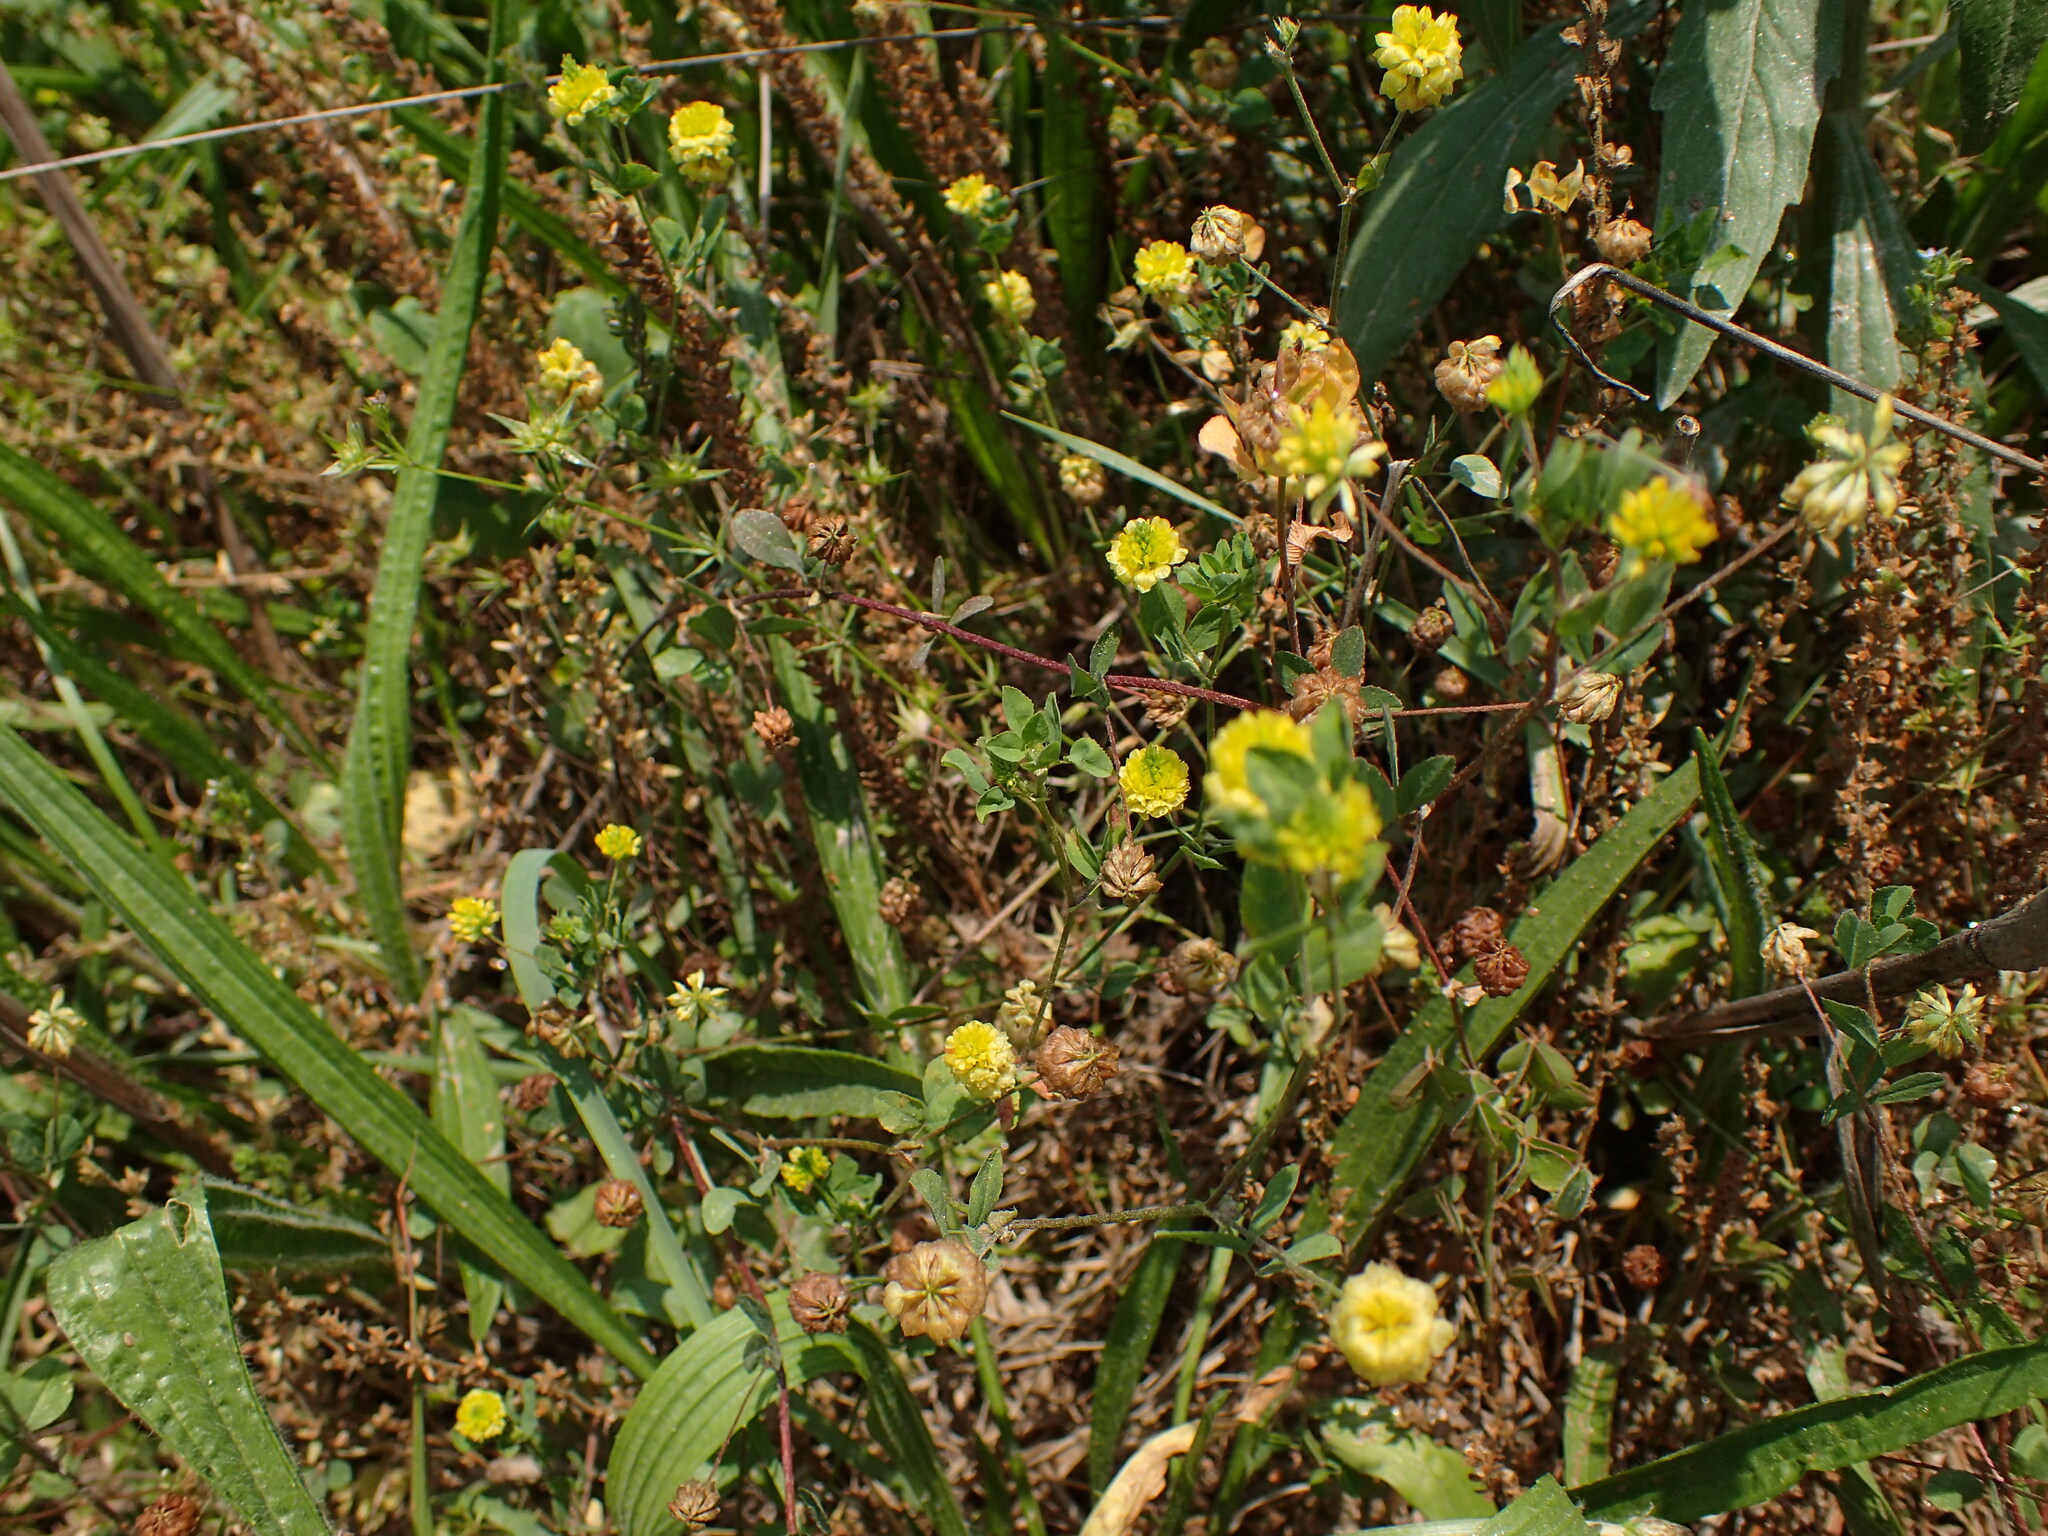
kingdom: Plantae
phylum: Tracheophyta
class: Magnoliopsida
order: Fabales
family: Fabaceae
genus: Trifolium
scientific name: Trifolium campestre
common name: Field clover
